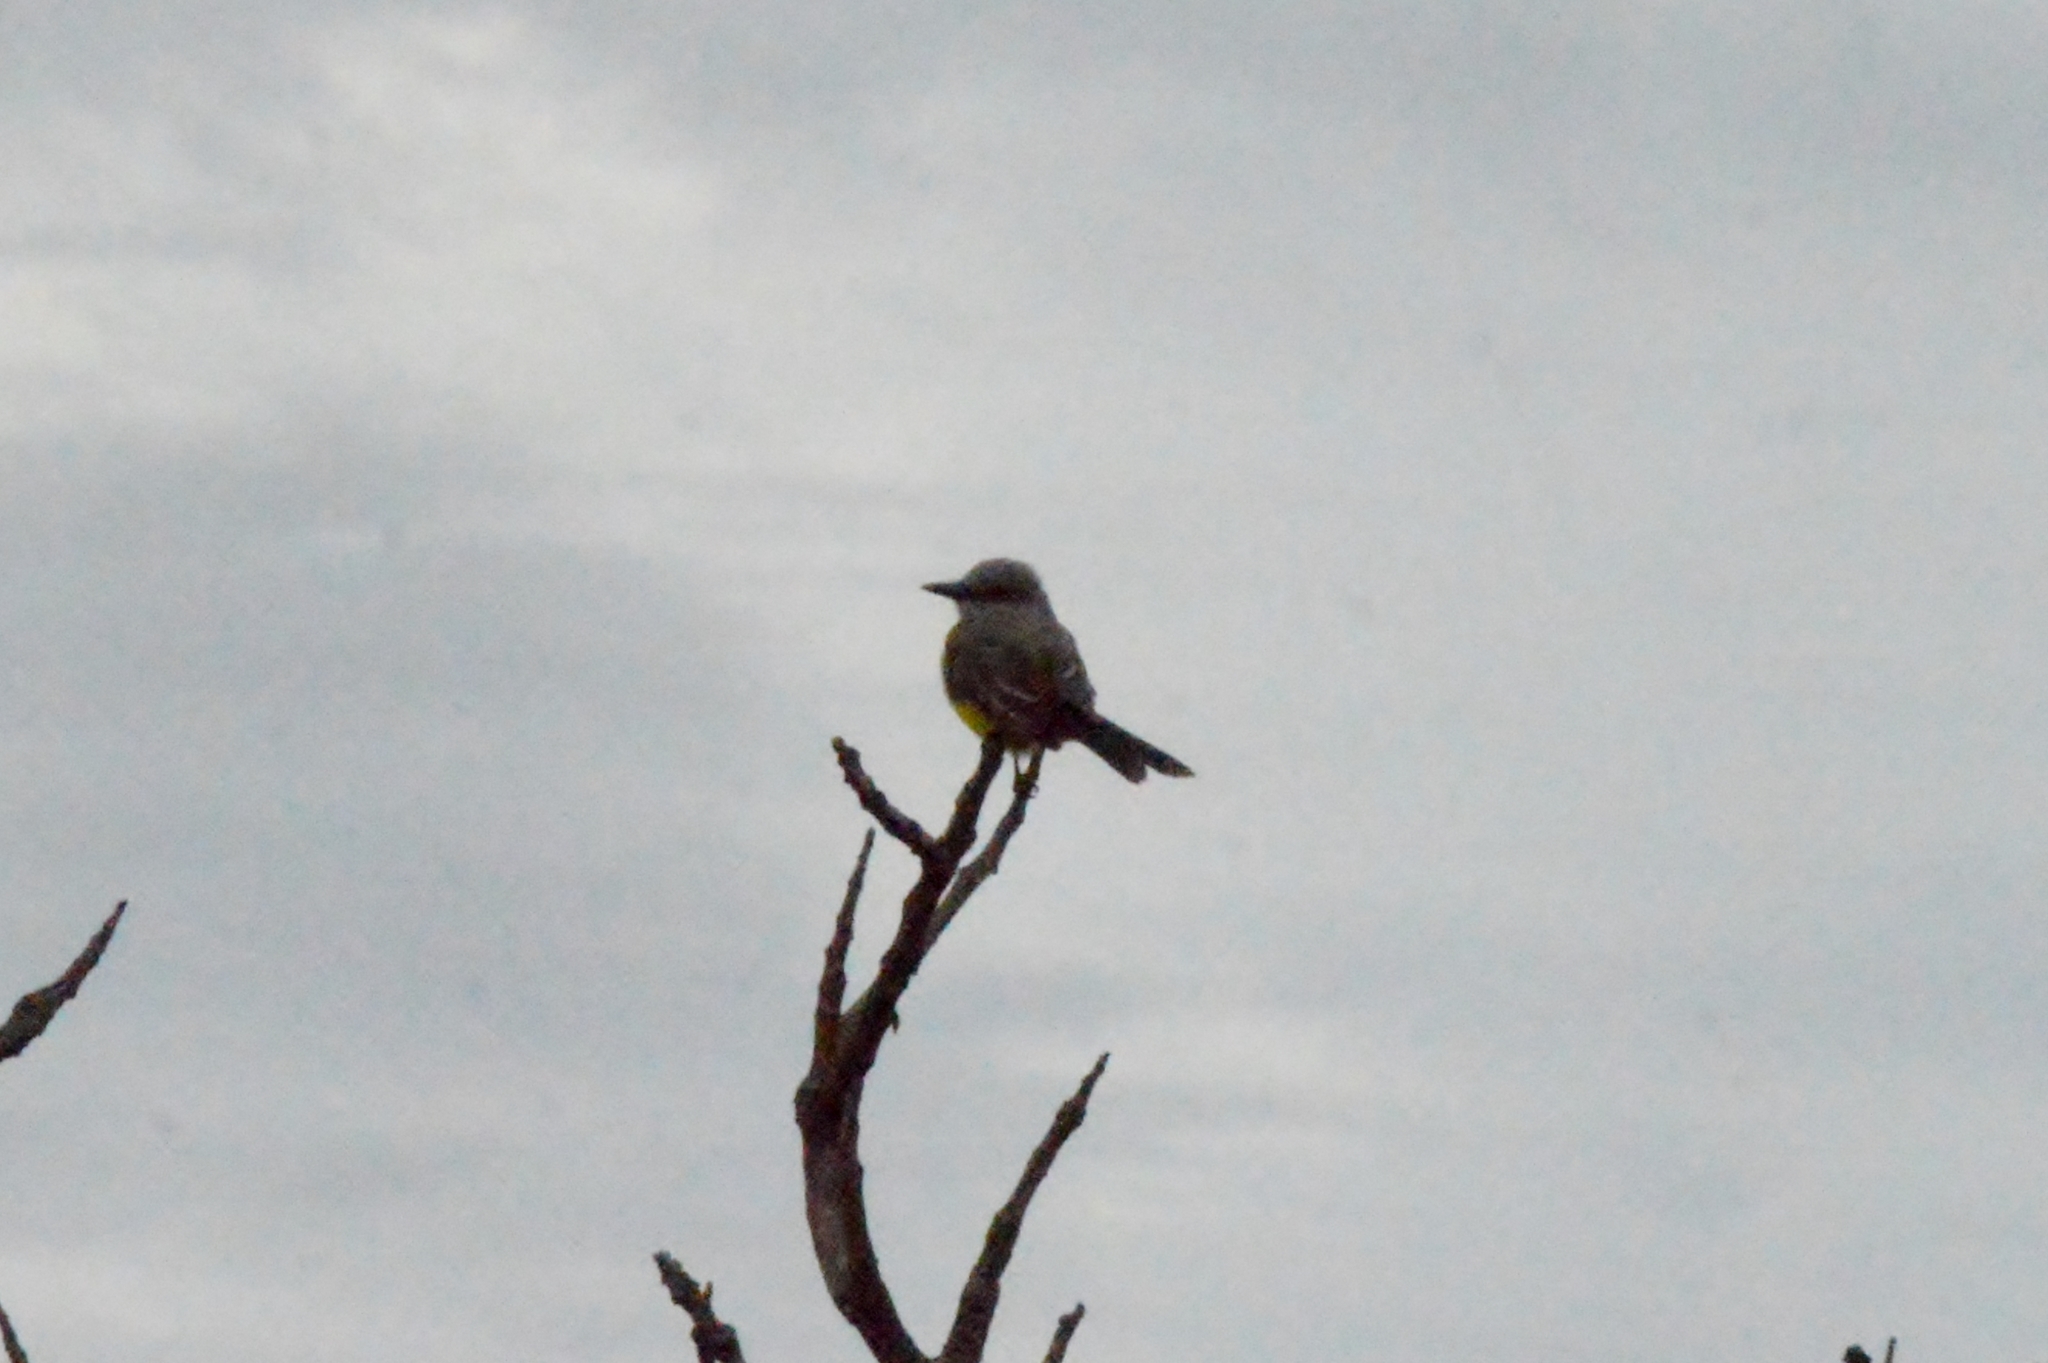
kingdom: Animalia
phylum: Chordata
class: Aves
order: Passeriformes
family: Tyrannidae
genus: Tyrannus
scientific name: Tyrannus melancholicus
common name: Tropical kingbird
